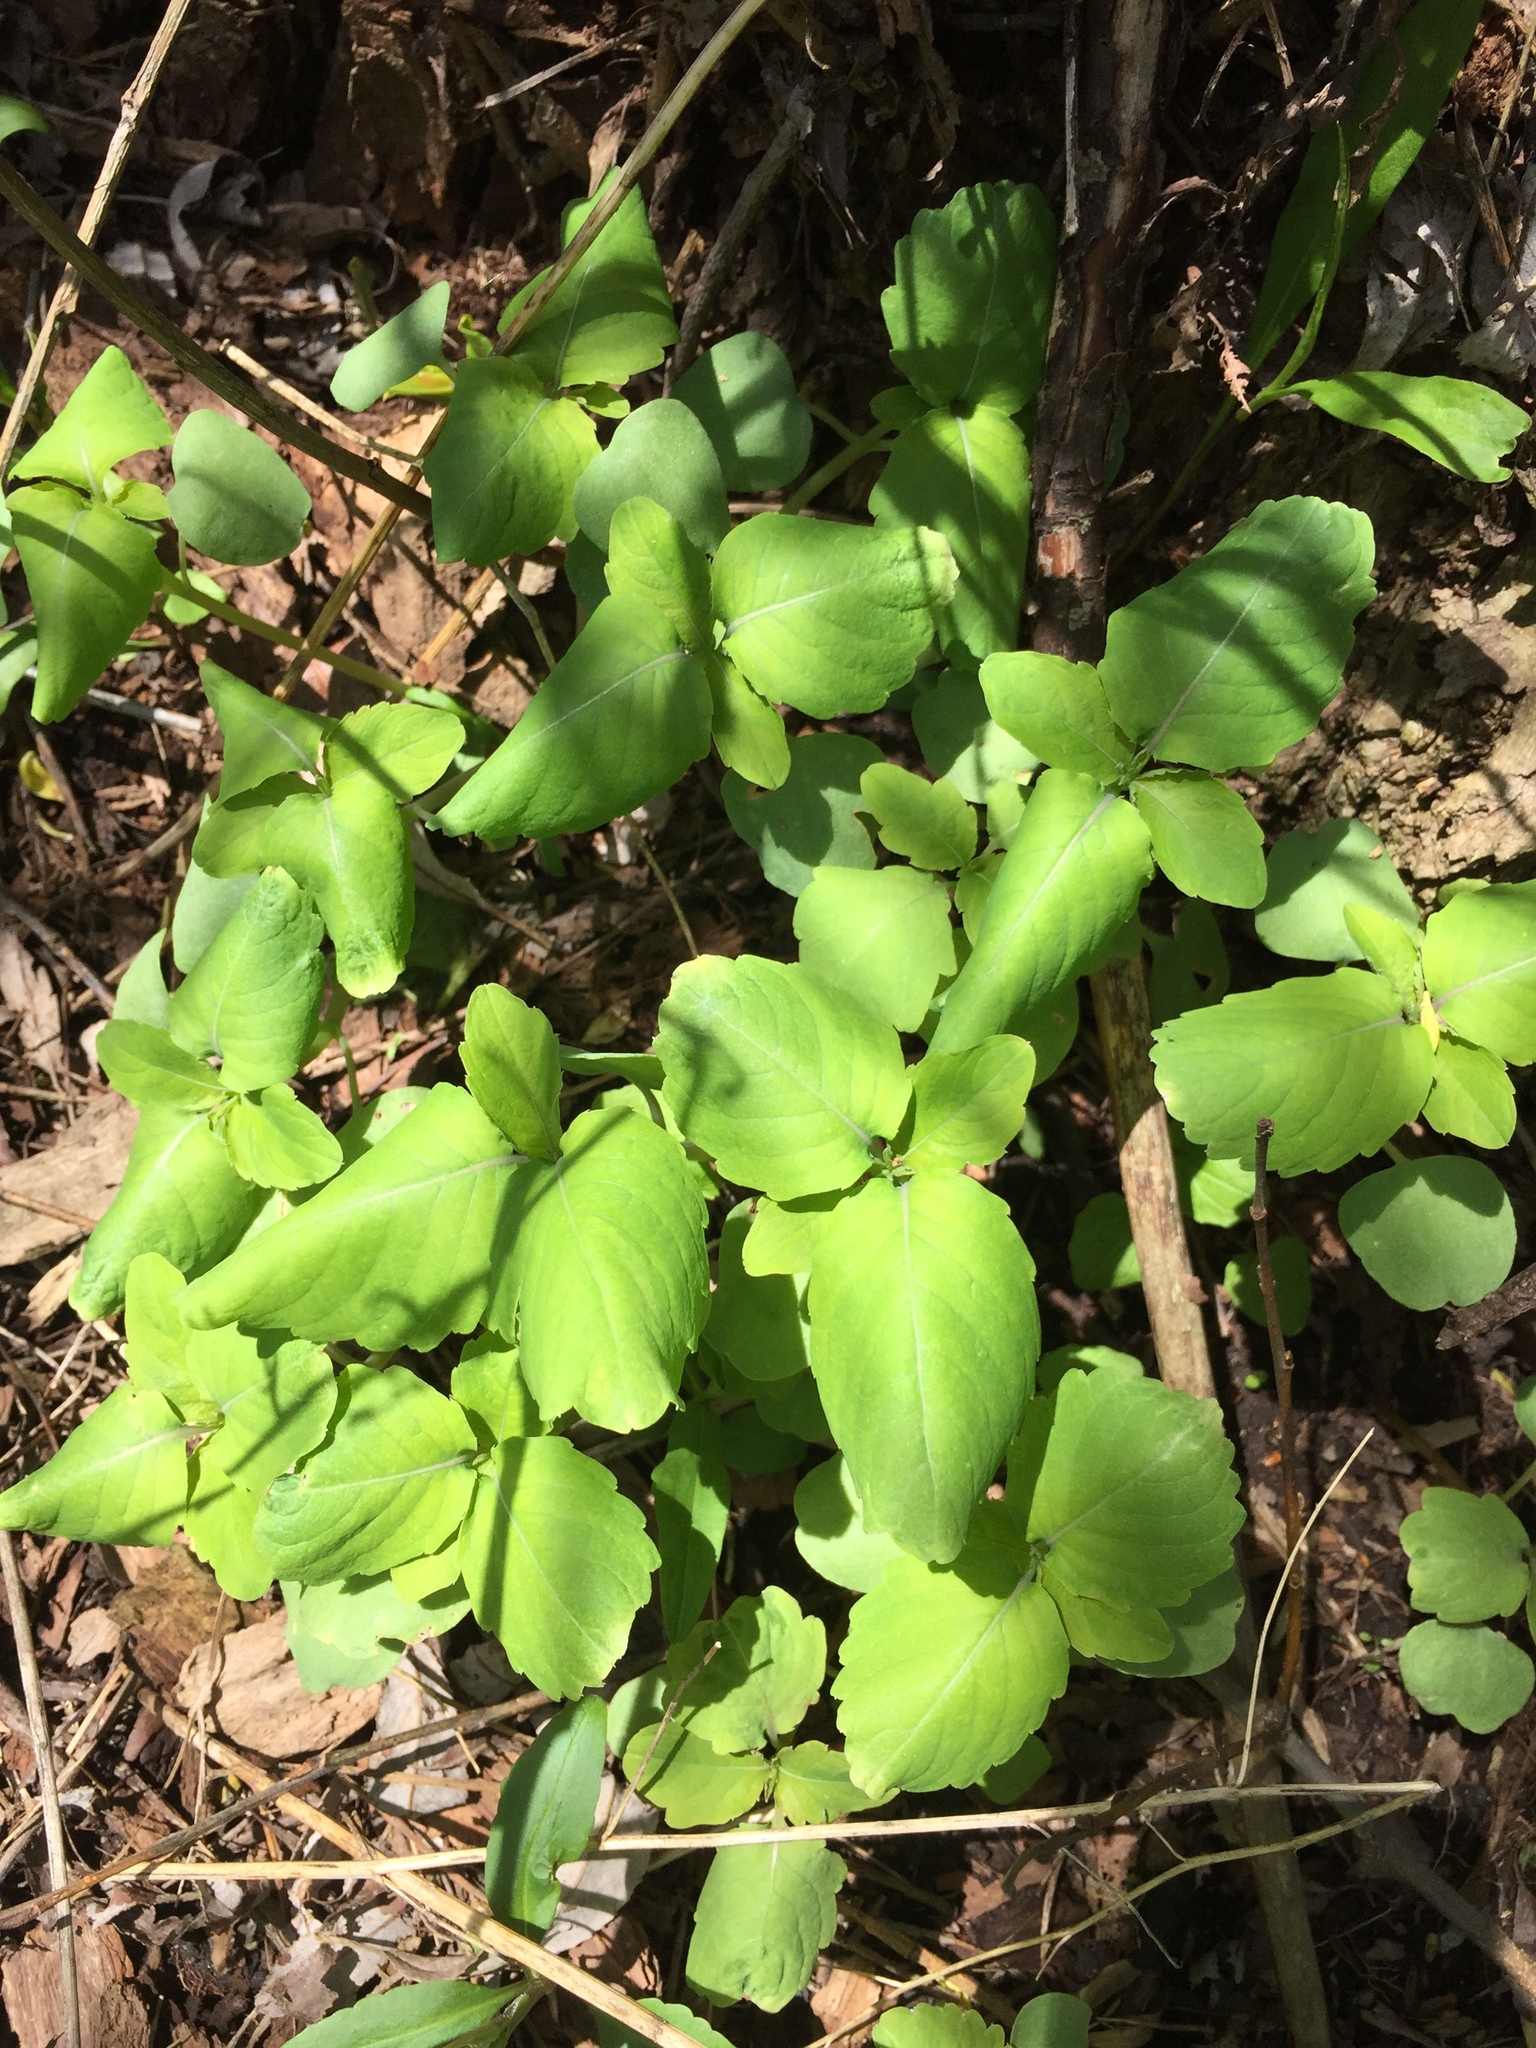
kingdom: Plantae
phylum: Tracheophyta
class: Magnoliopsida
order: Ericales
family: Balsaminaceae
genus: Impatiens
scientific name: Impatiens capensis
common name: Orange balsam
